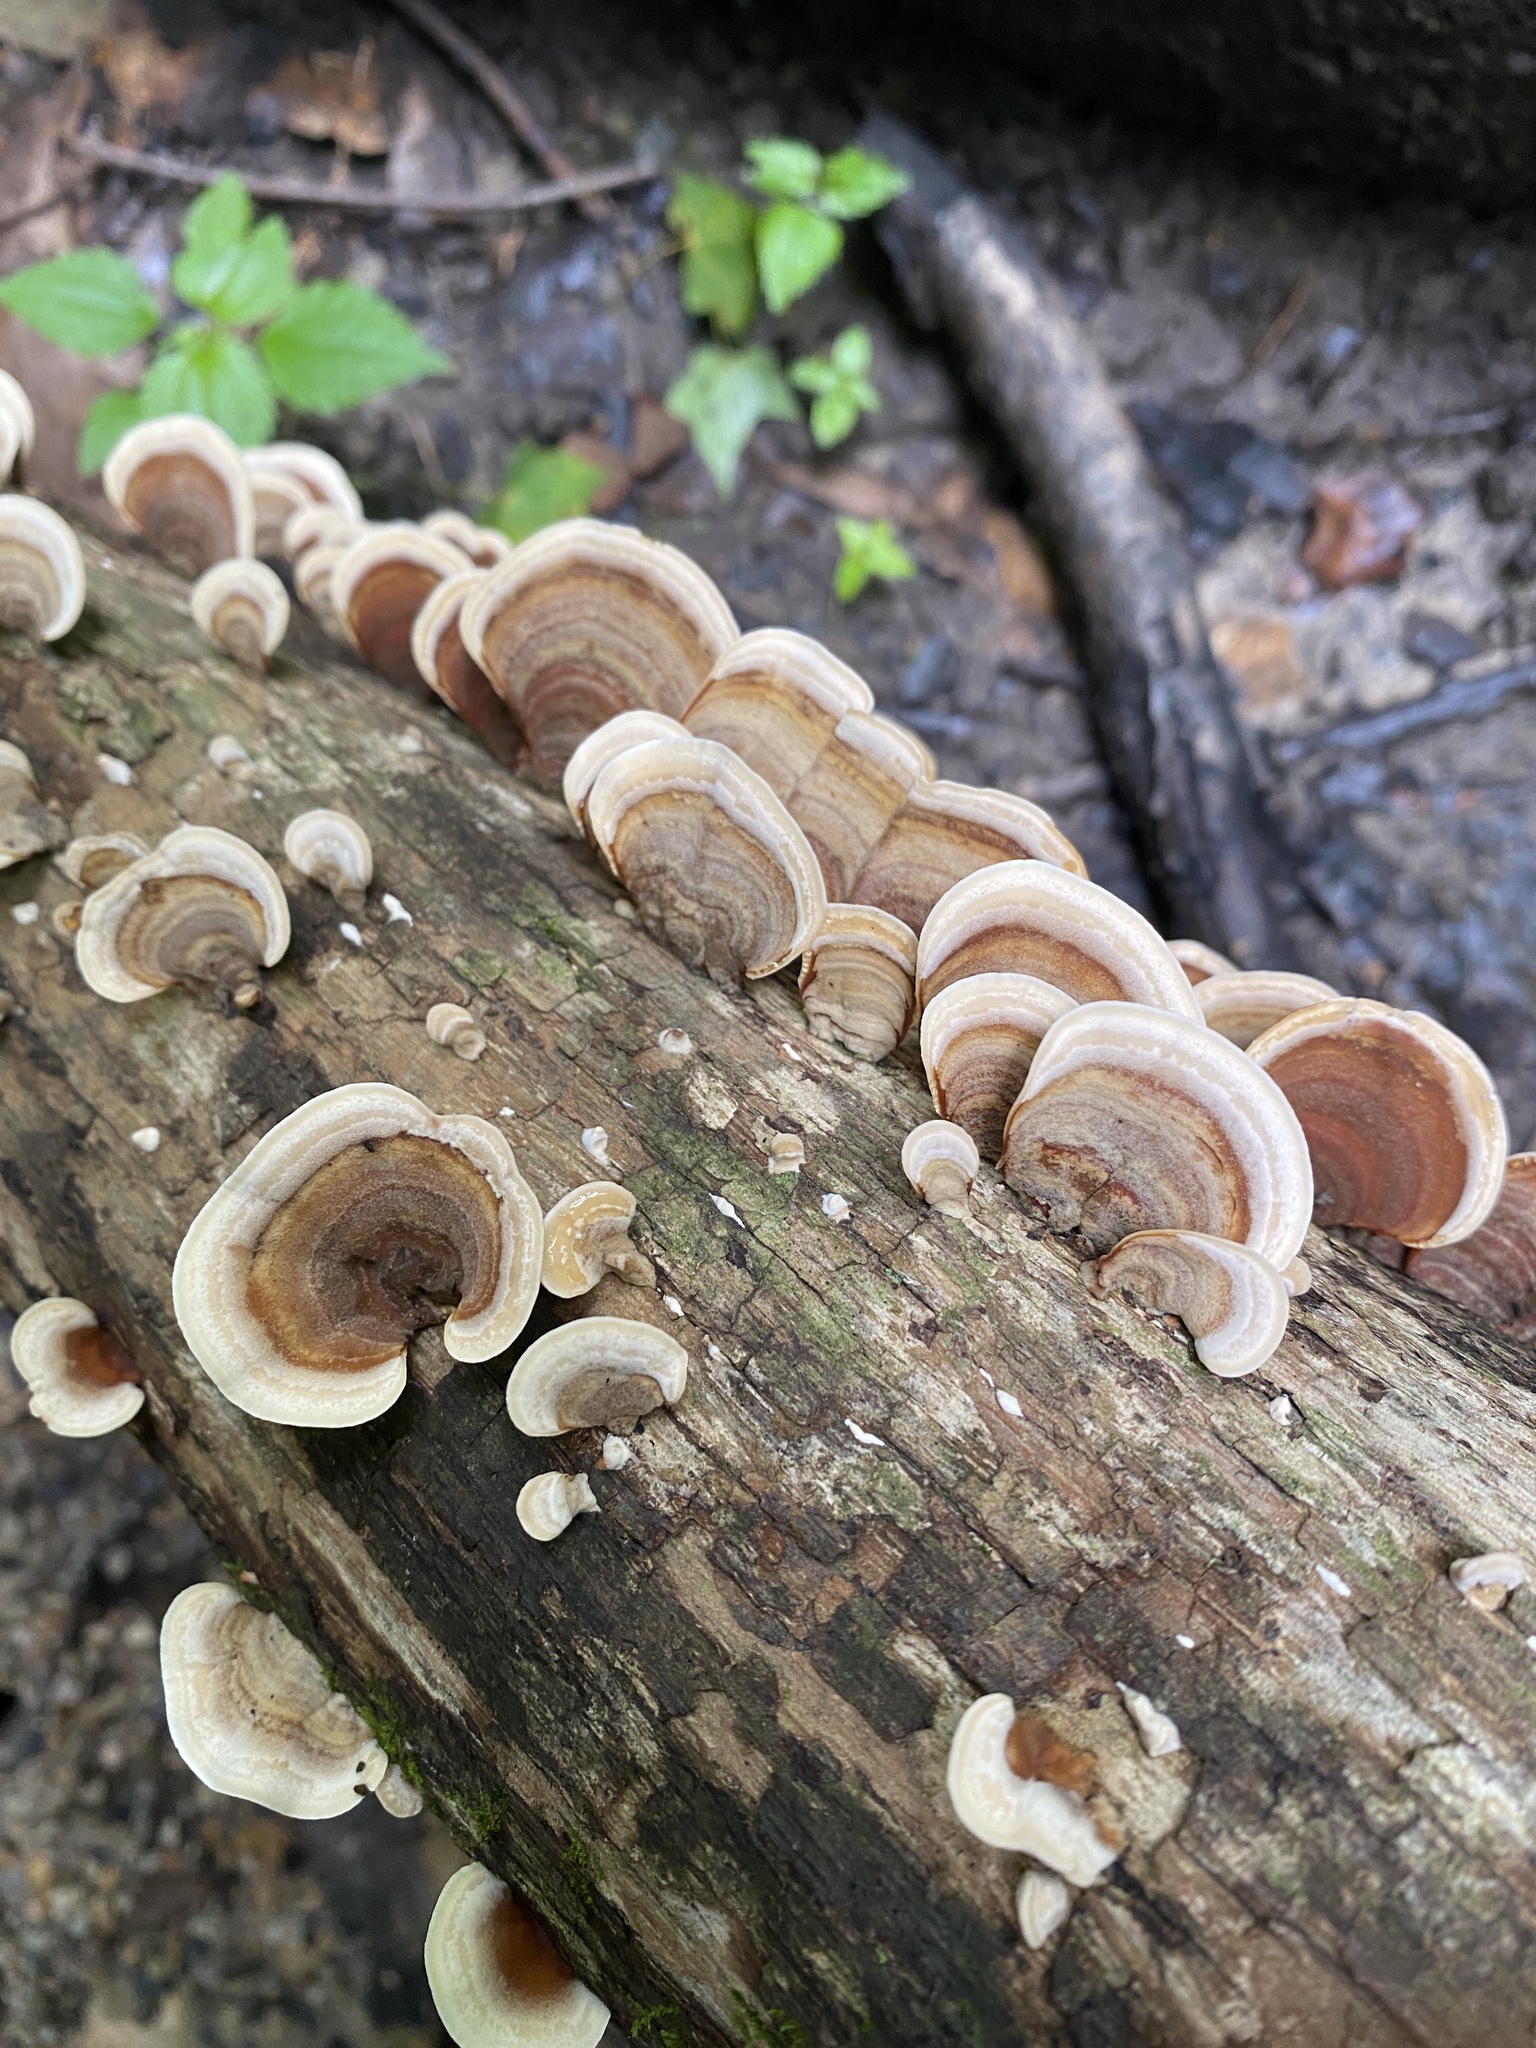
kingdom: Fungi
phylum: Basidiomycota
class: Agaricomycetes
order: Russulales
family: Stereaceae
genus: Stereum
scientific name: Stereum lobatum
